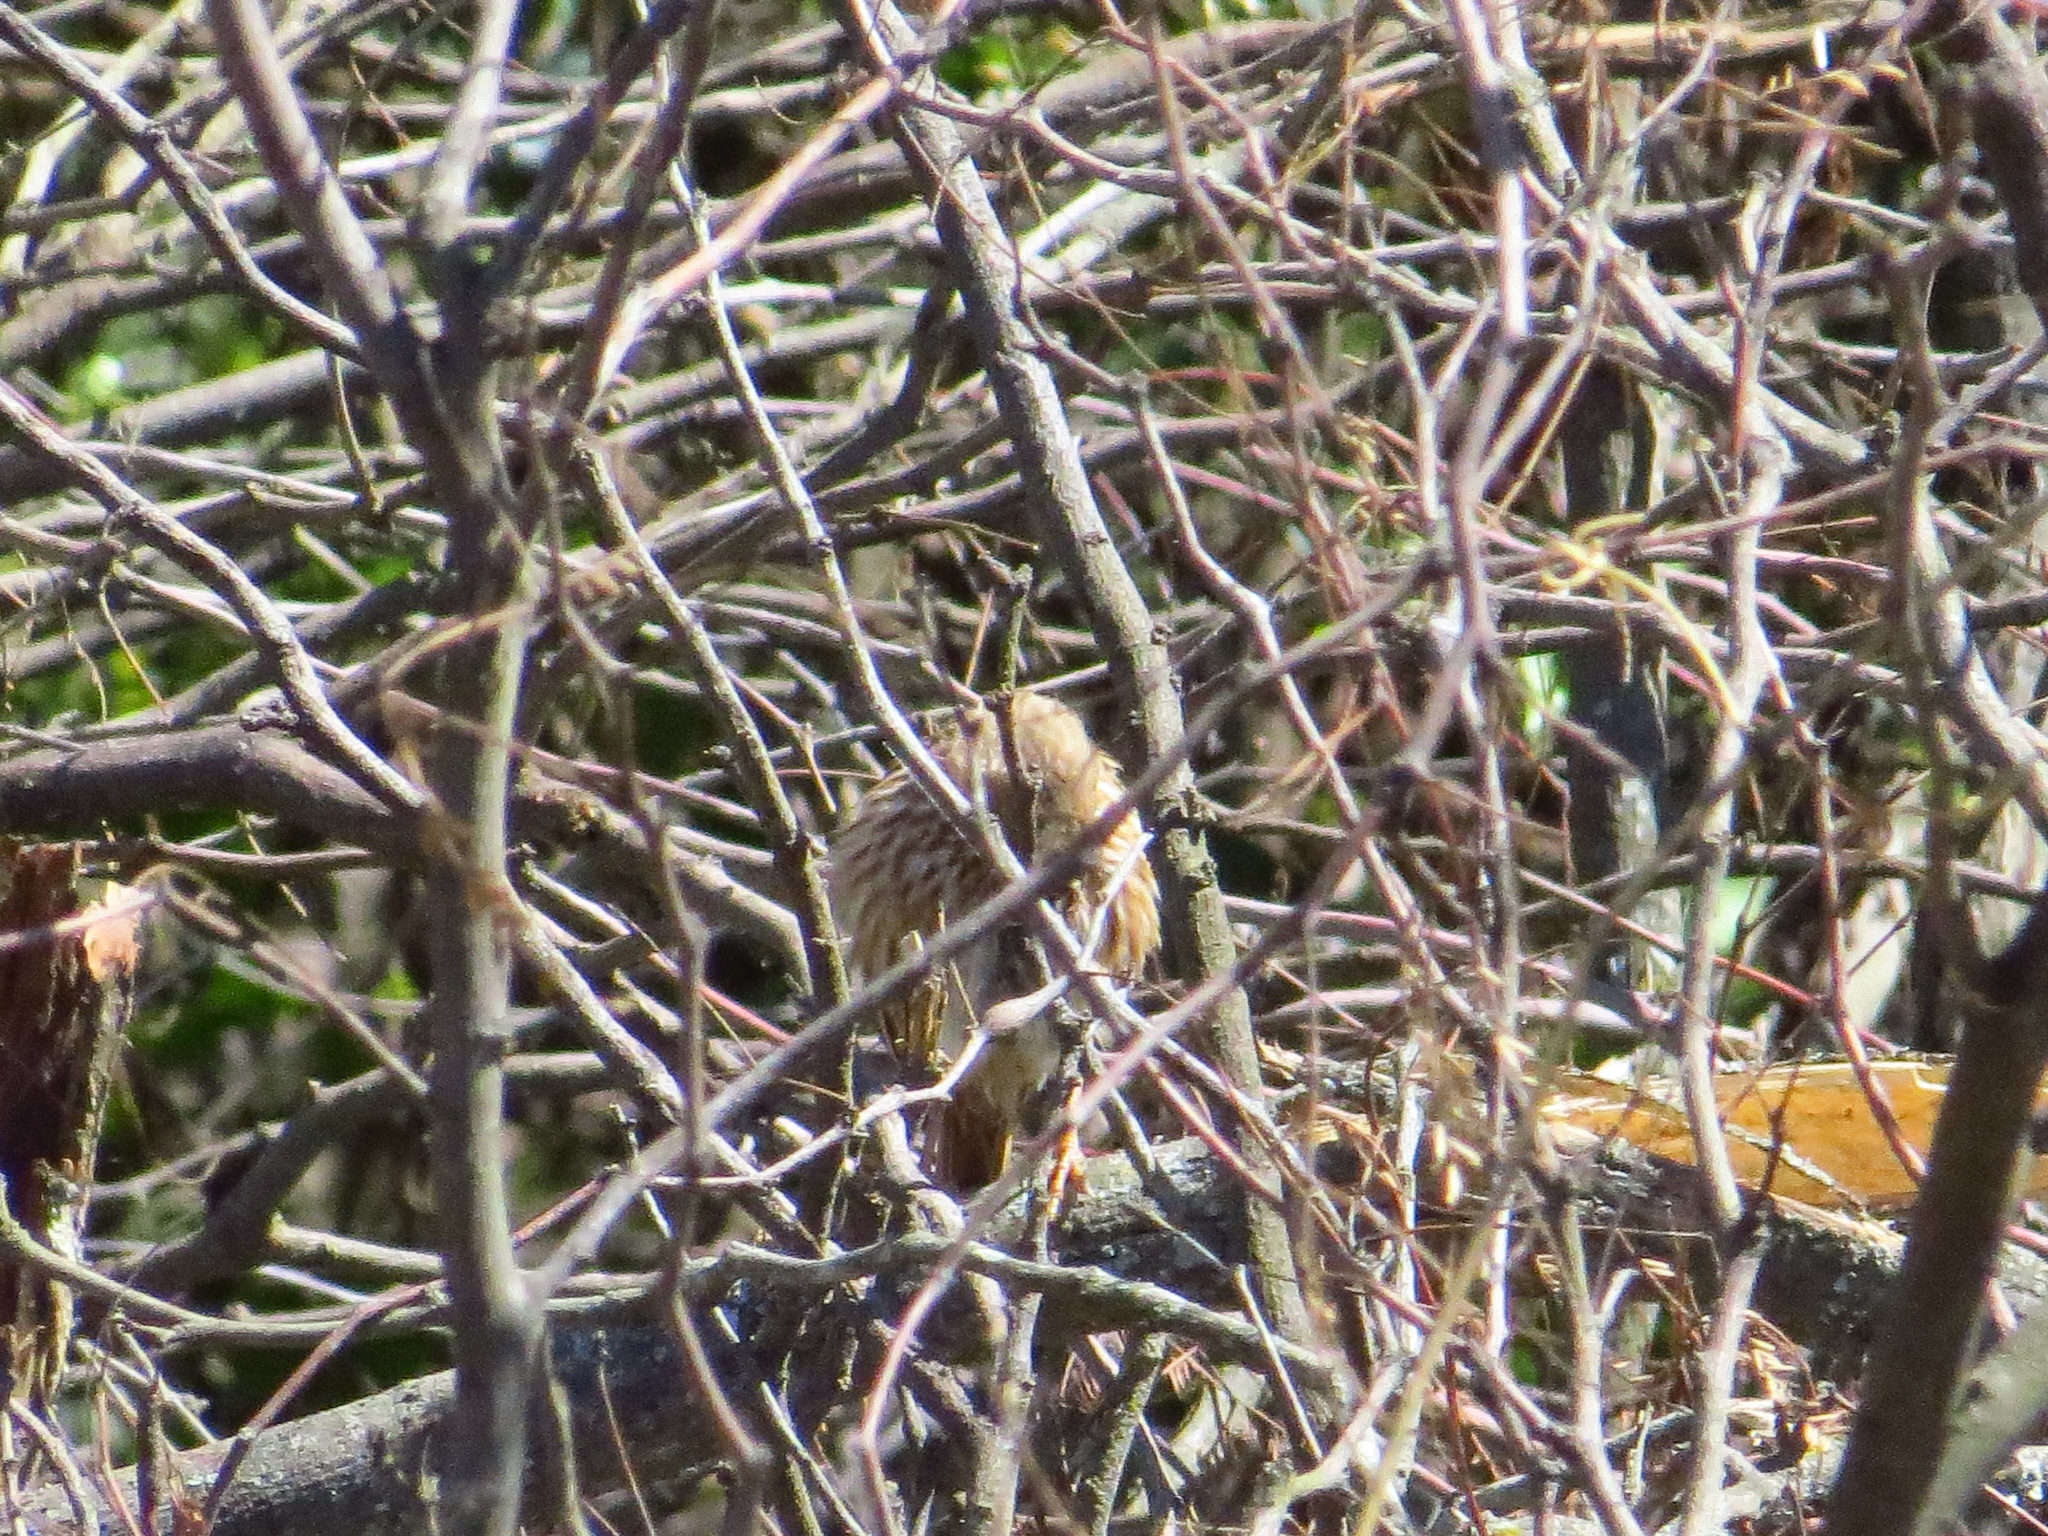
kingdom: Animalia
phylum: Chordata
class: Aves
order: Passeriformes
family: Furnariidae
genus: Coryphistera
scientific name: Coryphistera alaudina
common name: Lark-like brushrunner
